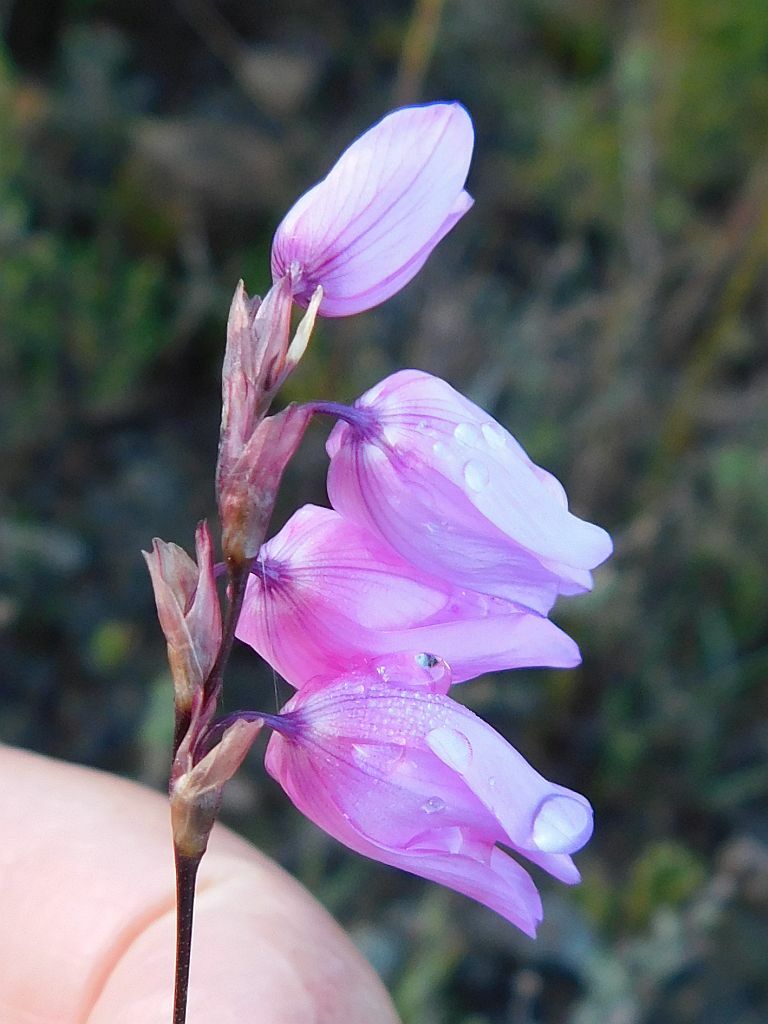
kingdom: Plantae
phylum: Tracheophyta
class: Liliopsida
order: Asparagales
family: Iridaceae
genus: Ixia
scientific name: Ixia micrandra
